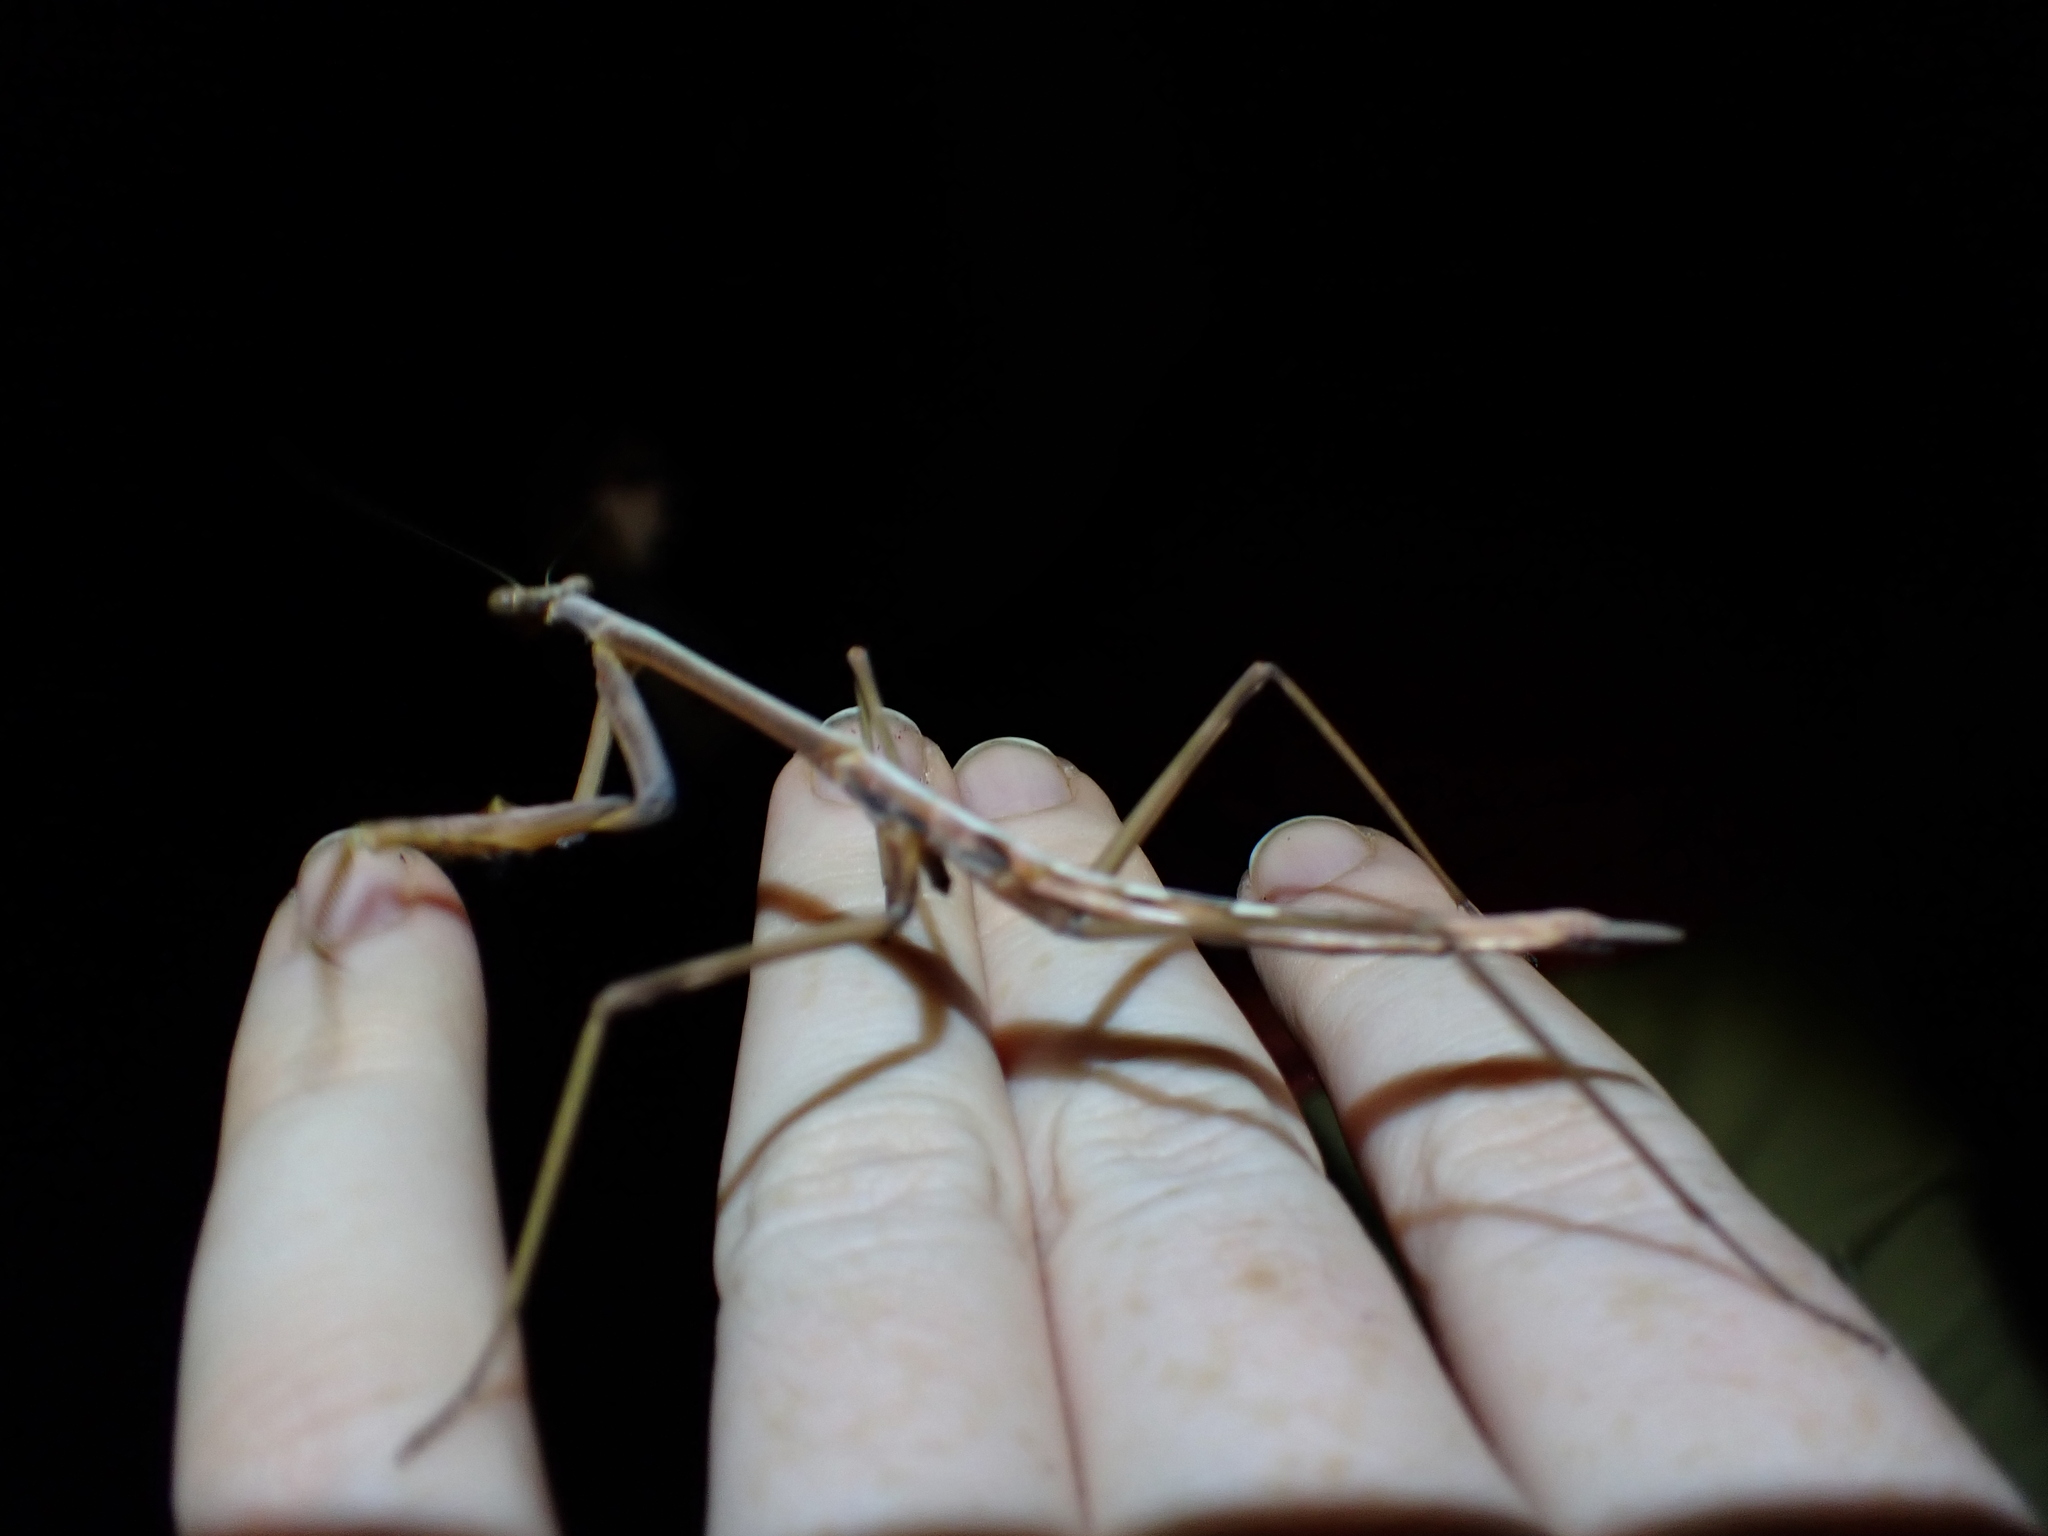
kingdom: Animalia
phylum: Arthropoda
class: Insecta
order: Mantodea
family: Mantidae
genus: Archimantis
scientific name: Archimantis latistyla
